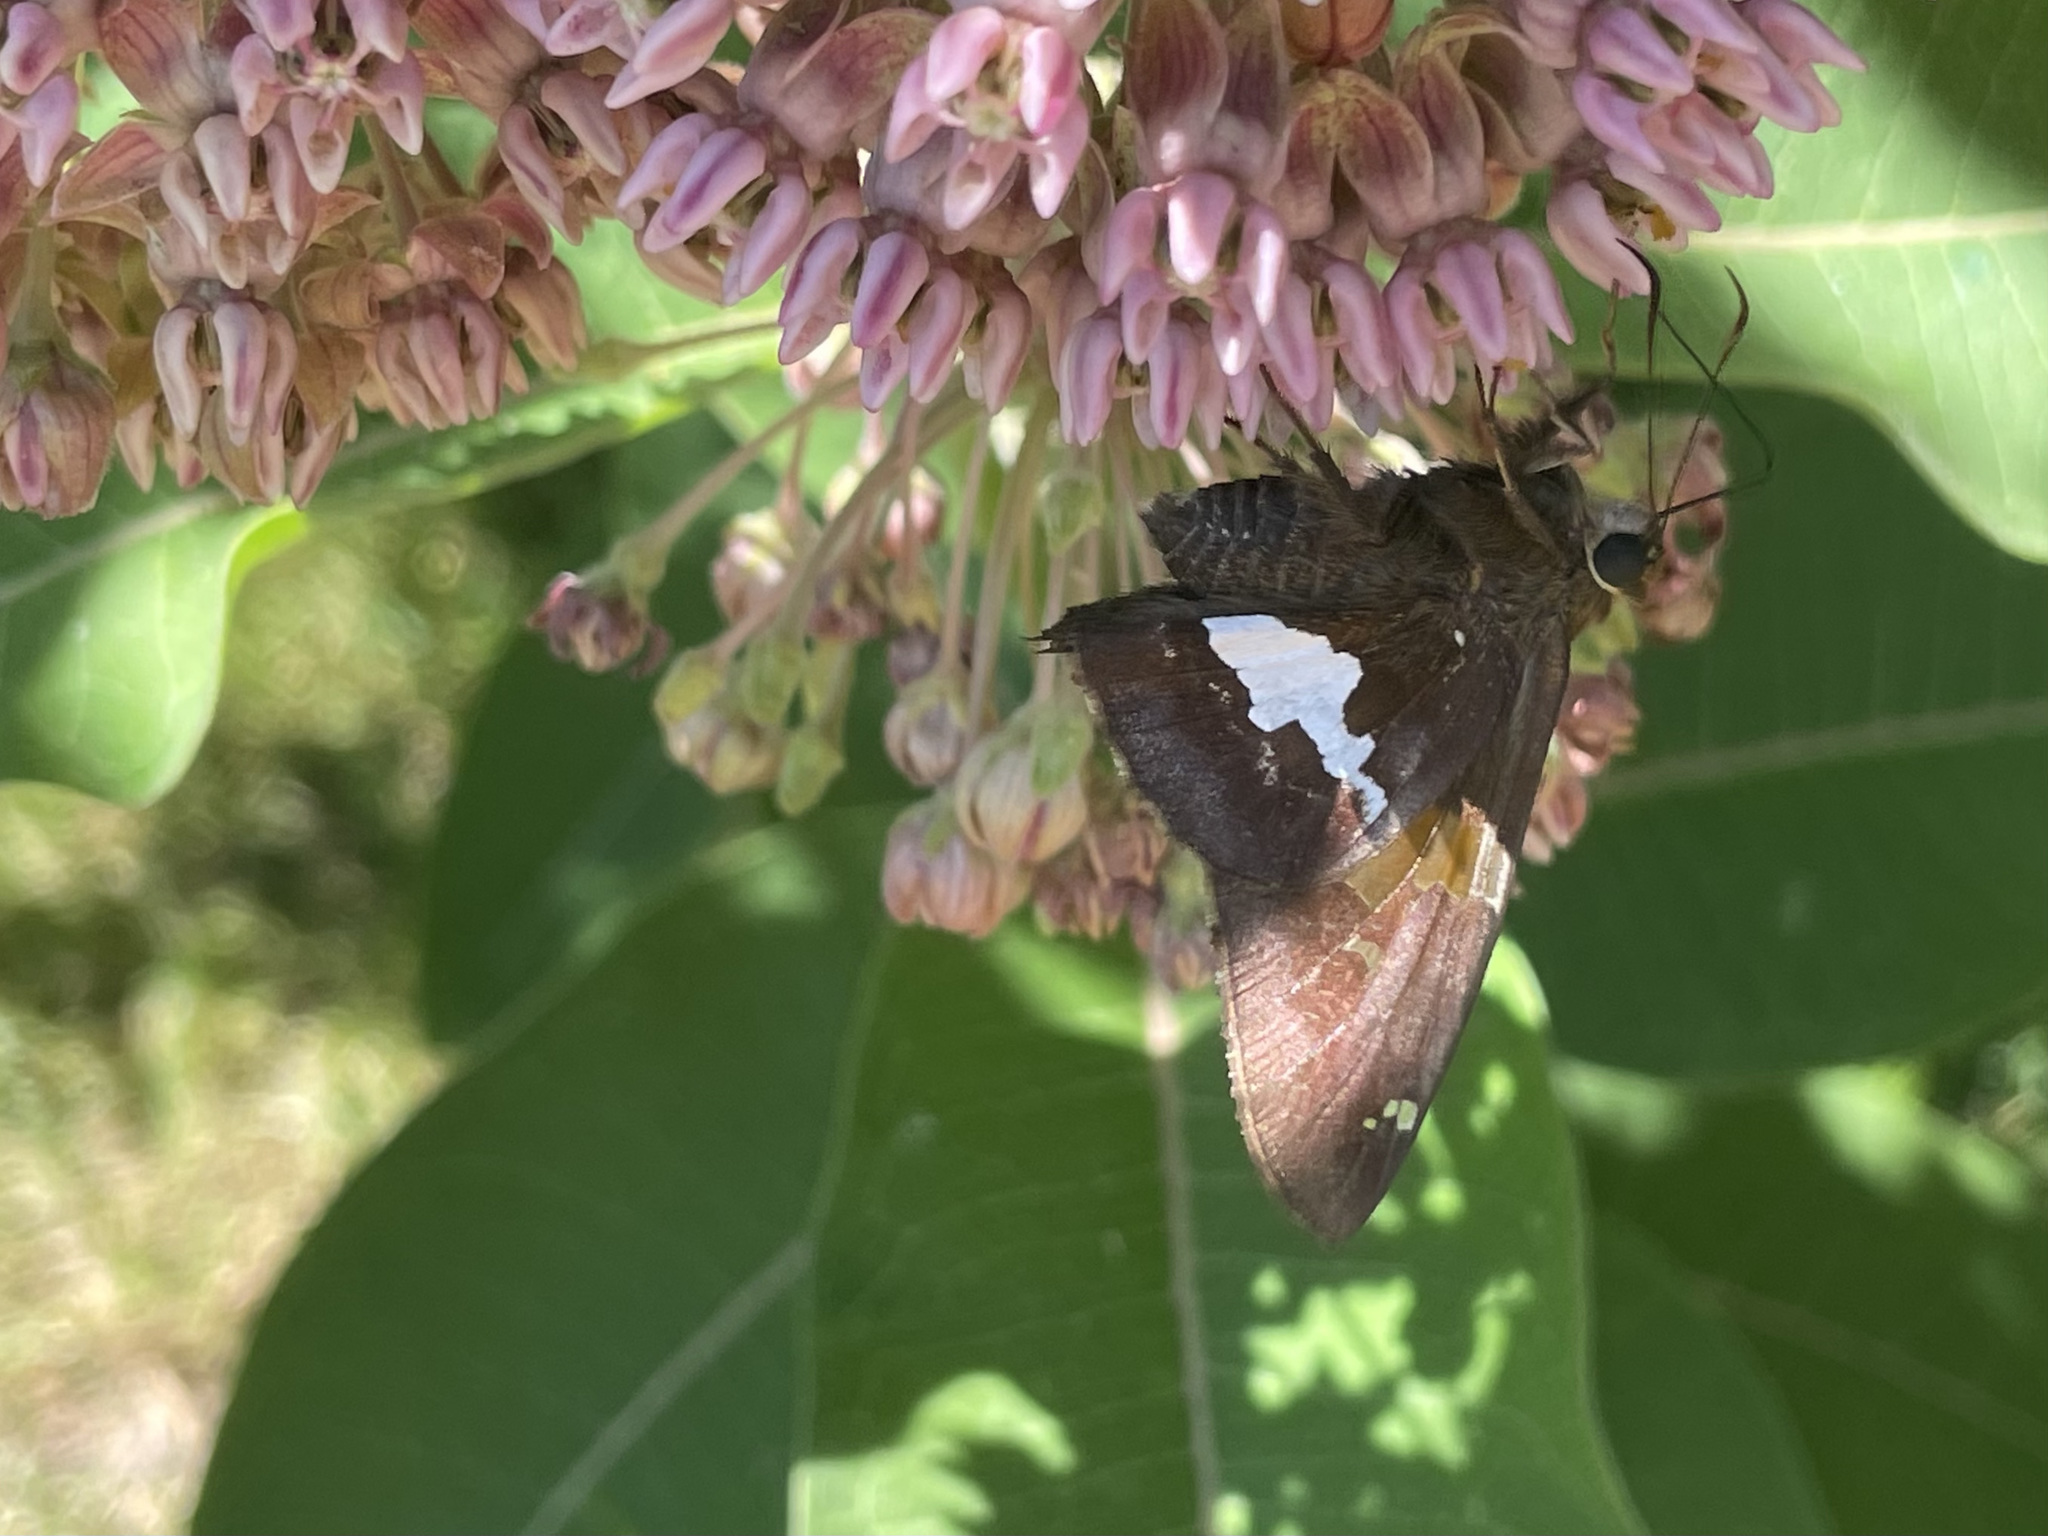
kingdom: Animalia
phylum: Arthropoda
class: Insecta
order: Lepidoptera
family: Hesperiidae
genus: Epargyreus
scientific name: Epargyreus clarus
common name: Silver-spotted skipper
